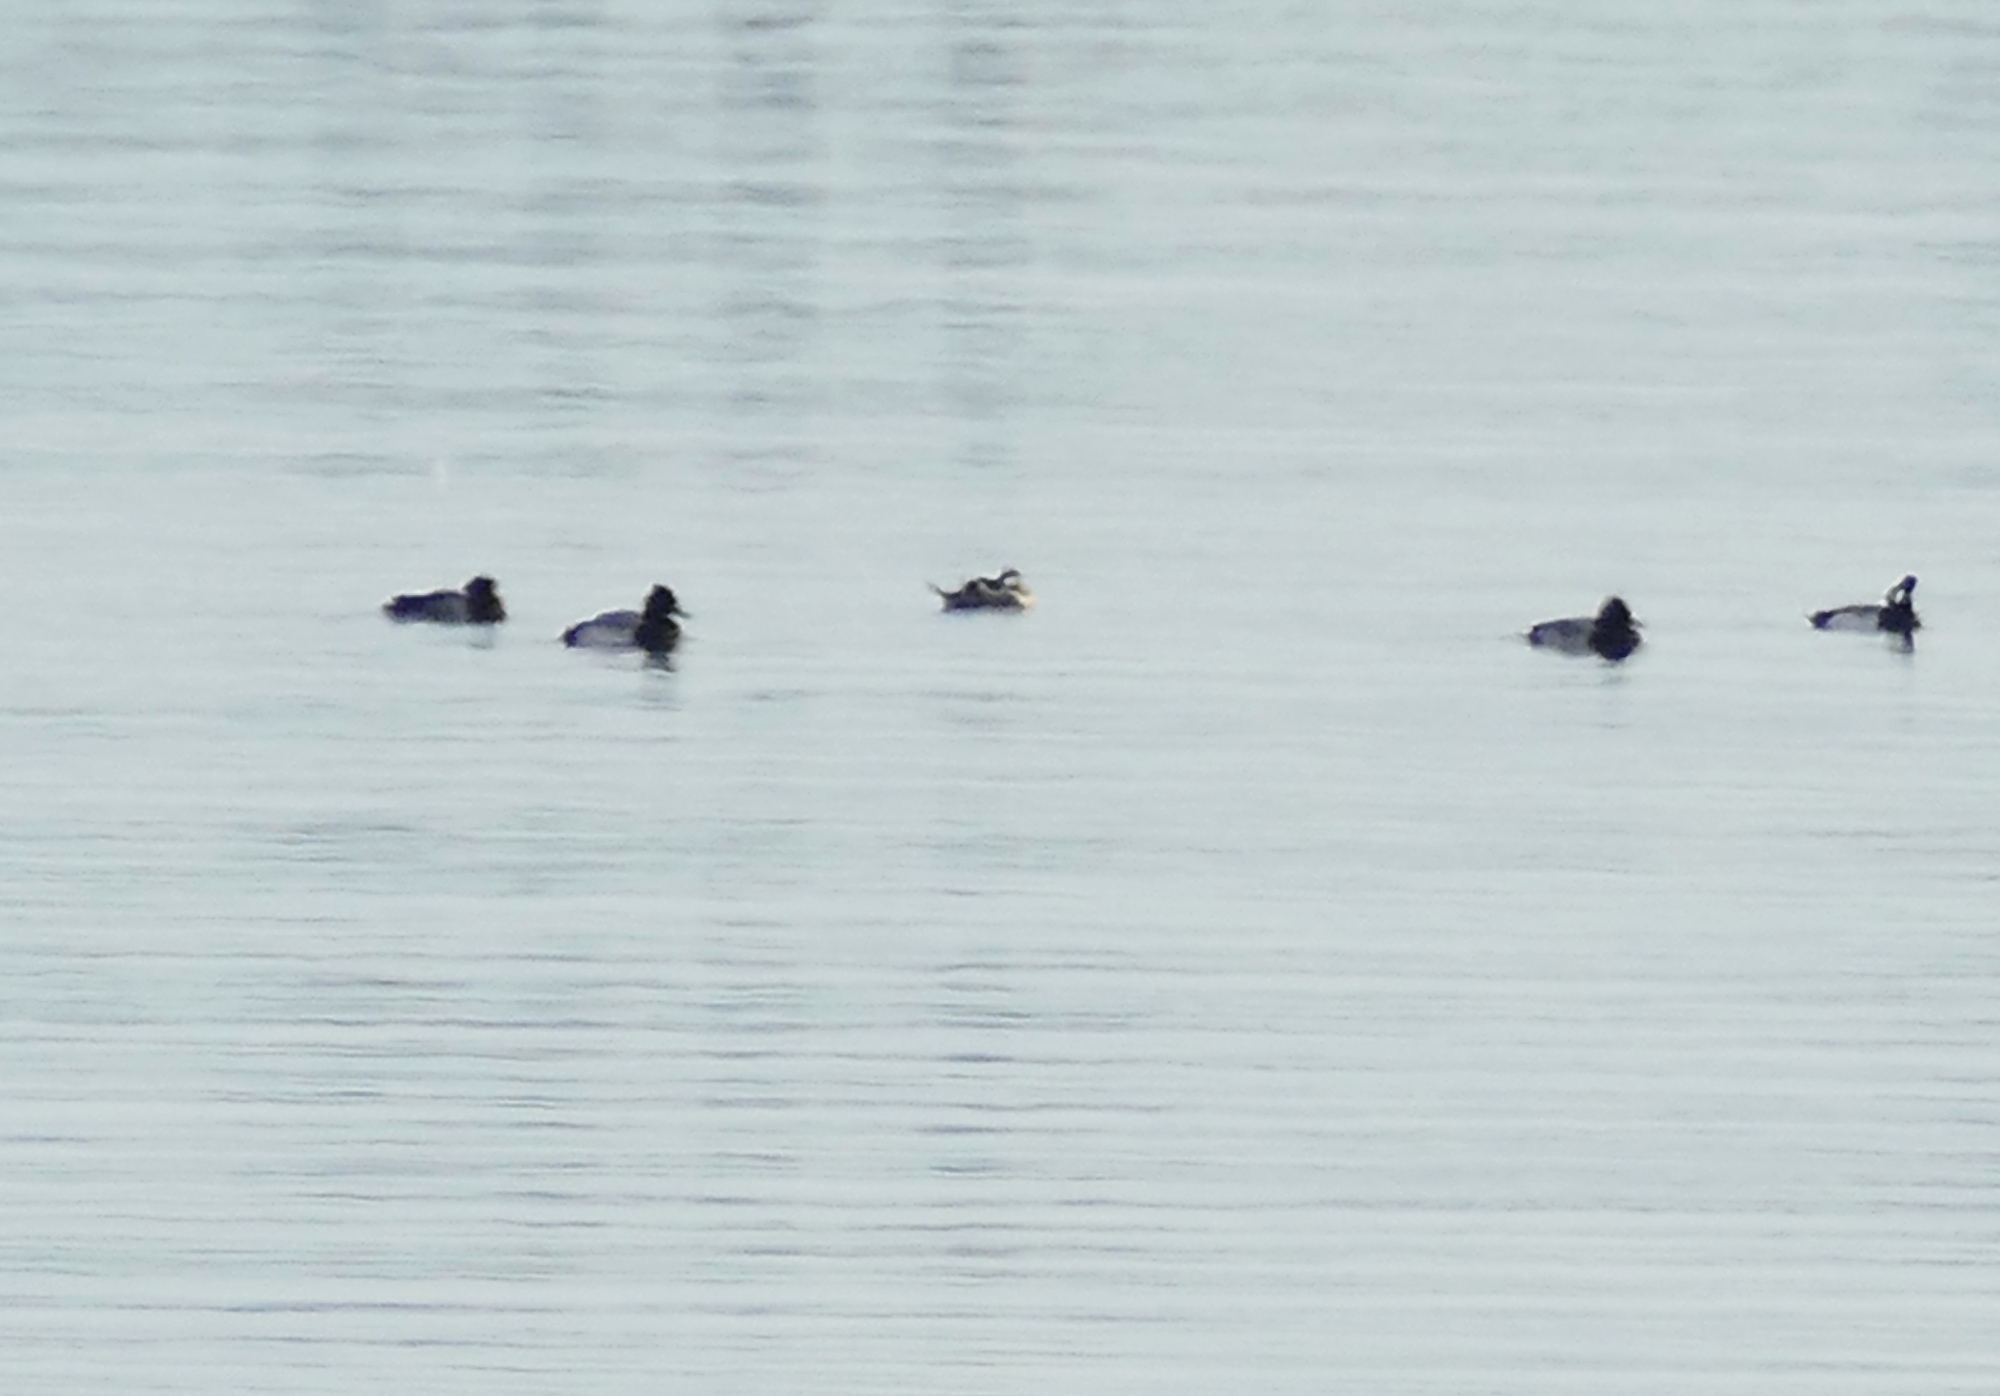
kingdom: Animalia
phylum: Chordata
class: Aves
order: Anseriformes
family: Anatidae
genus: Oxyura
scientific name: Oxyura jamaicensis
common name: Ruddy duck
